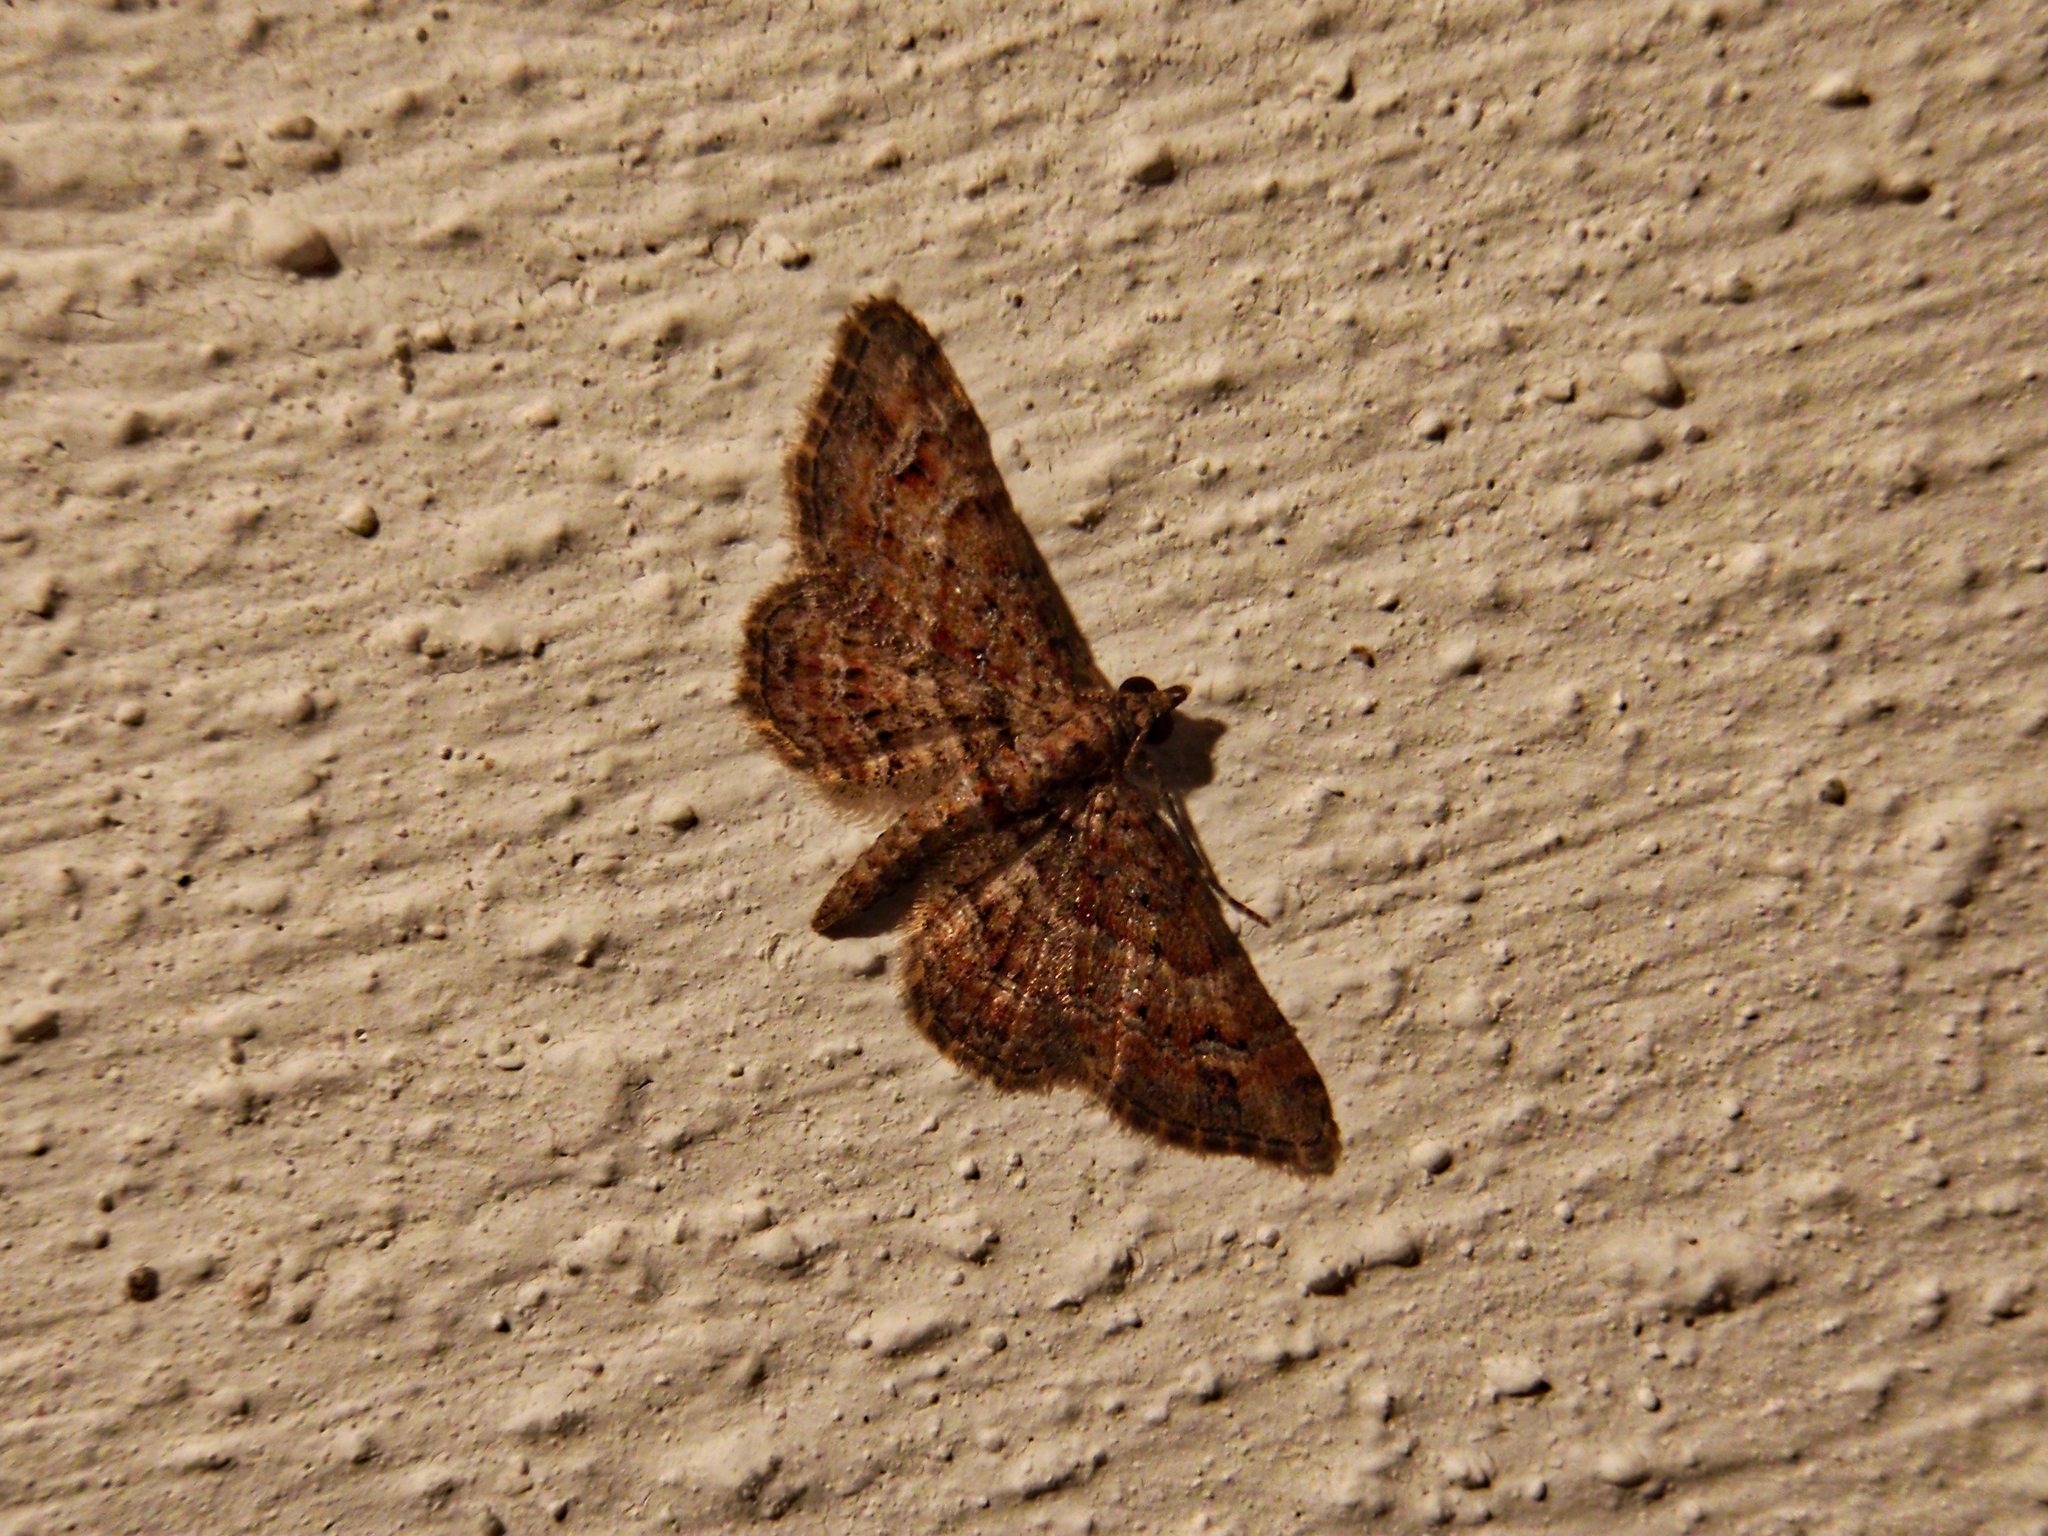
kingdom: Animalia
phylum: Arthropoda
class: Insecta
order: Lepidoptera
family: Geometridae
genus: Gymnoscelis
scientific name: Gymnoscelis rufifasciata
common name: Double-striped pug
